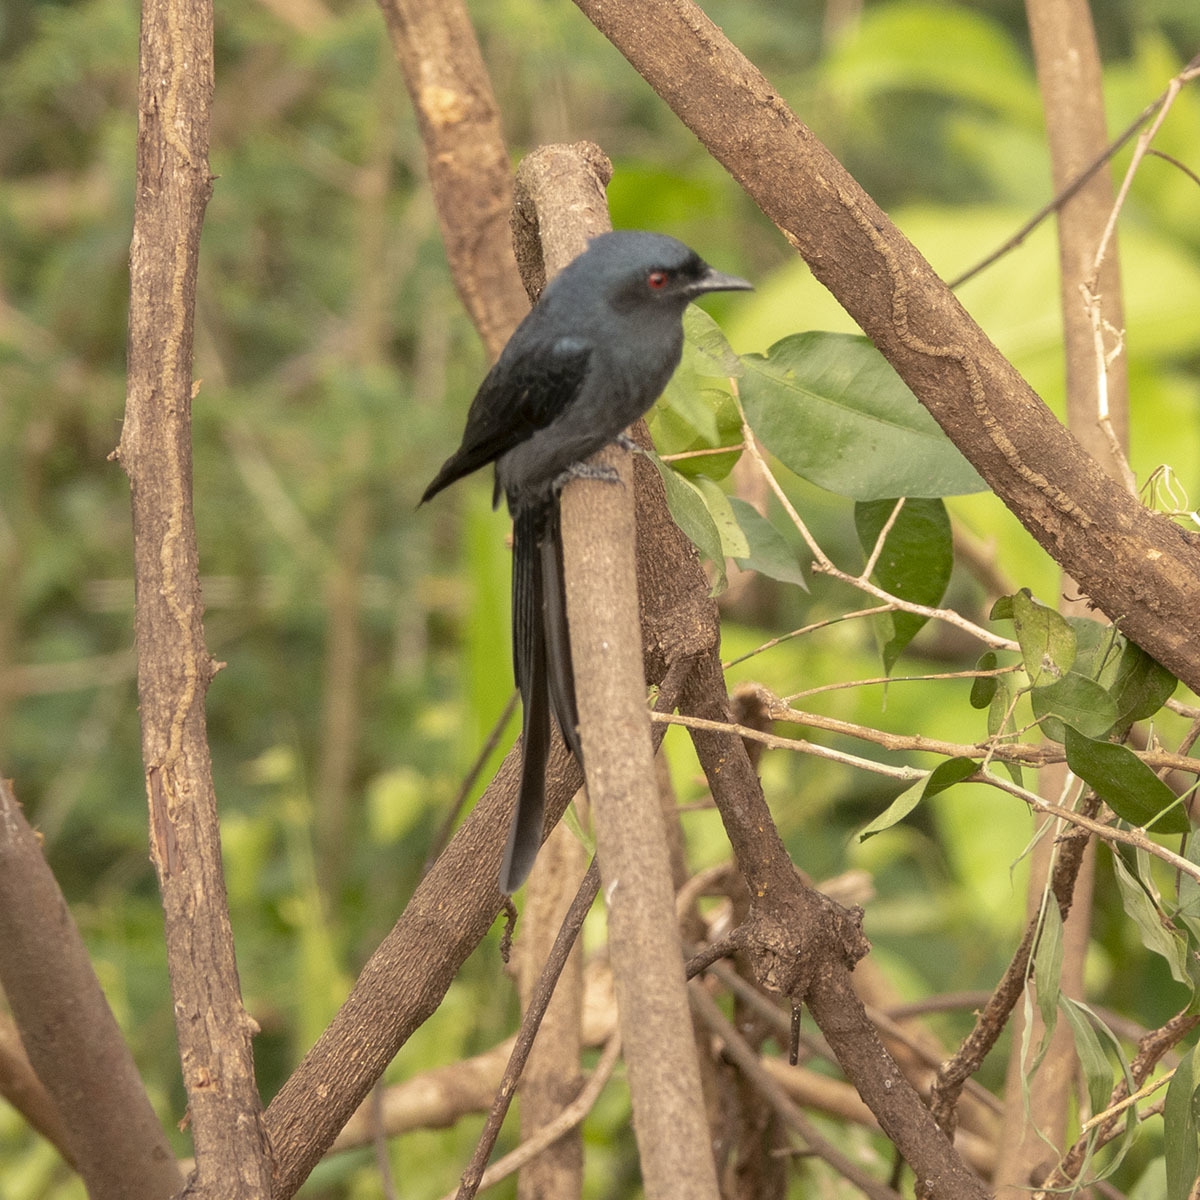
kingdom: Animalia
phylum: Chordata
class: Aves
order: Passeriformes
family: Dicruridae
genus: Dicrurus
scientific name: Dicrurus leucophaeus
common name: Ashy drongo
